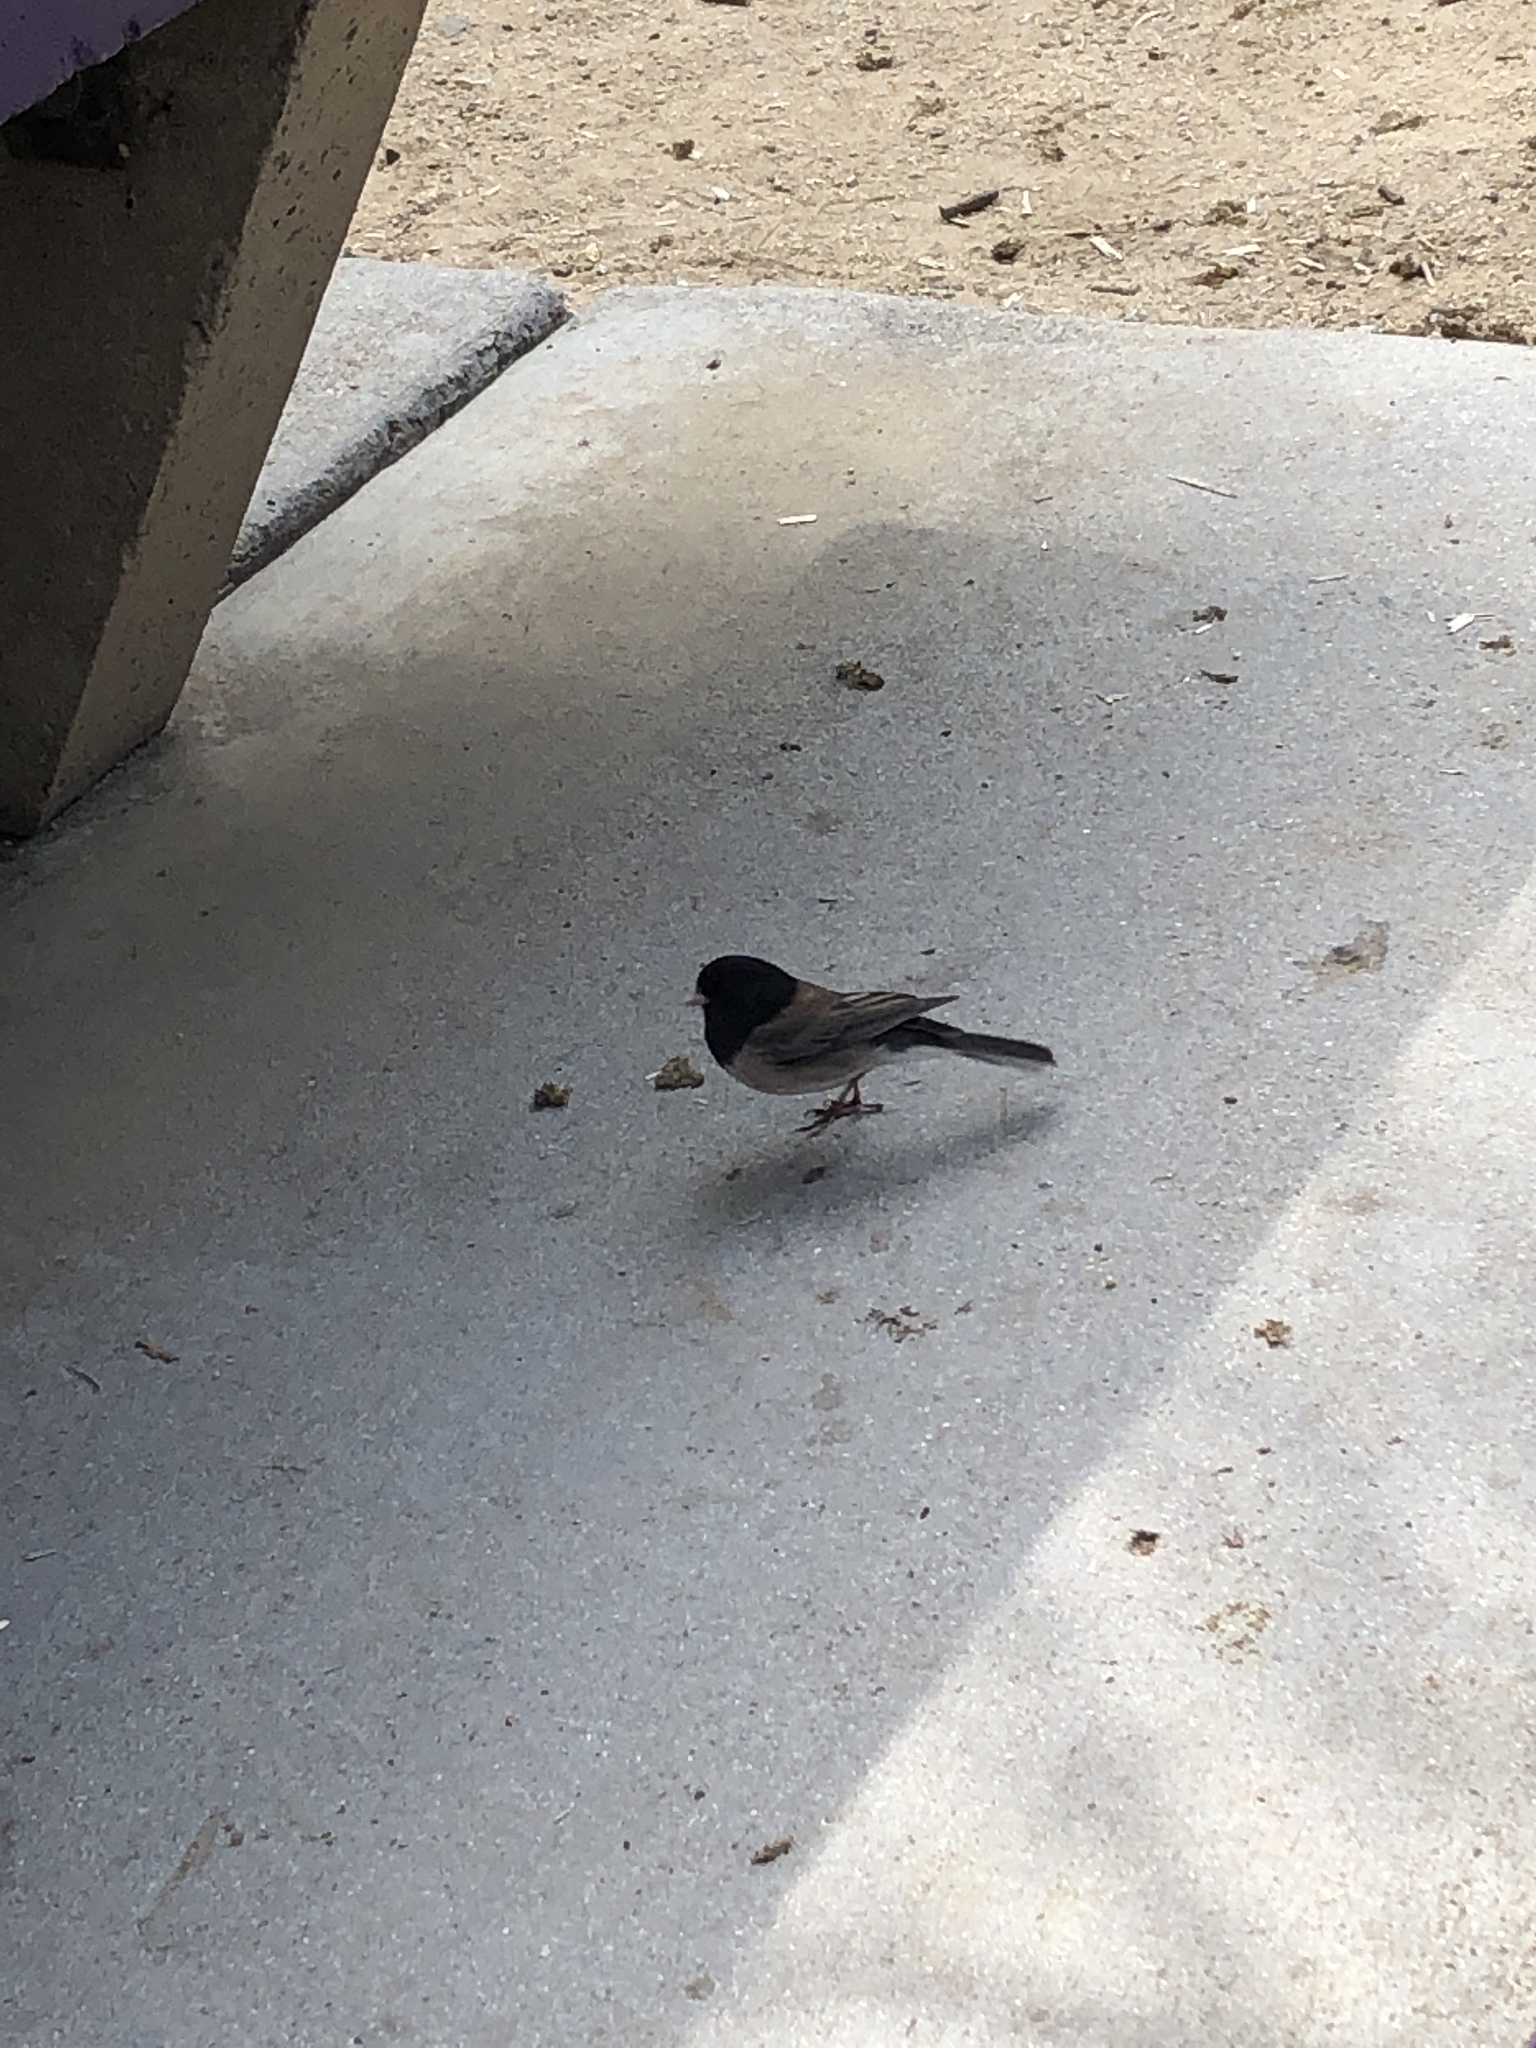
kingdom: Animalia
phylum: Chordata
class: Aves
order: Passeriformes
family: Passerellidae
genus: Junco
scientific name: Junco hyemalis
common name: Dark-eyed junco
